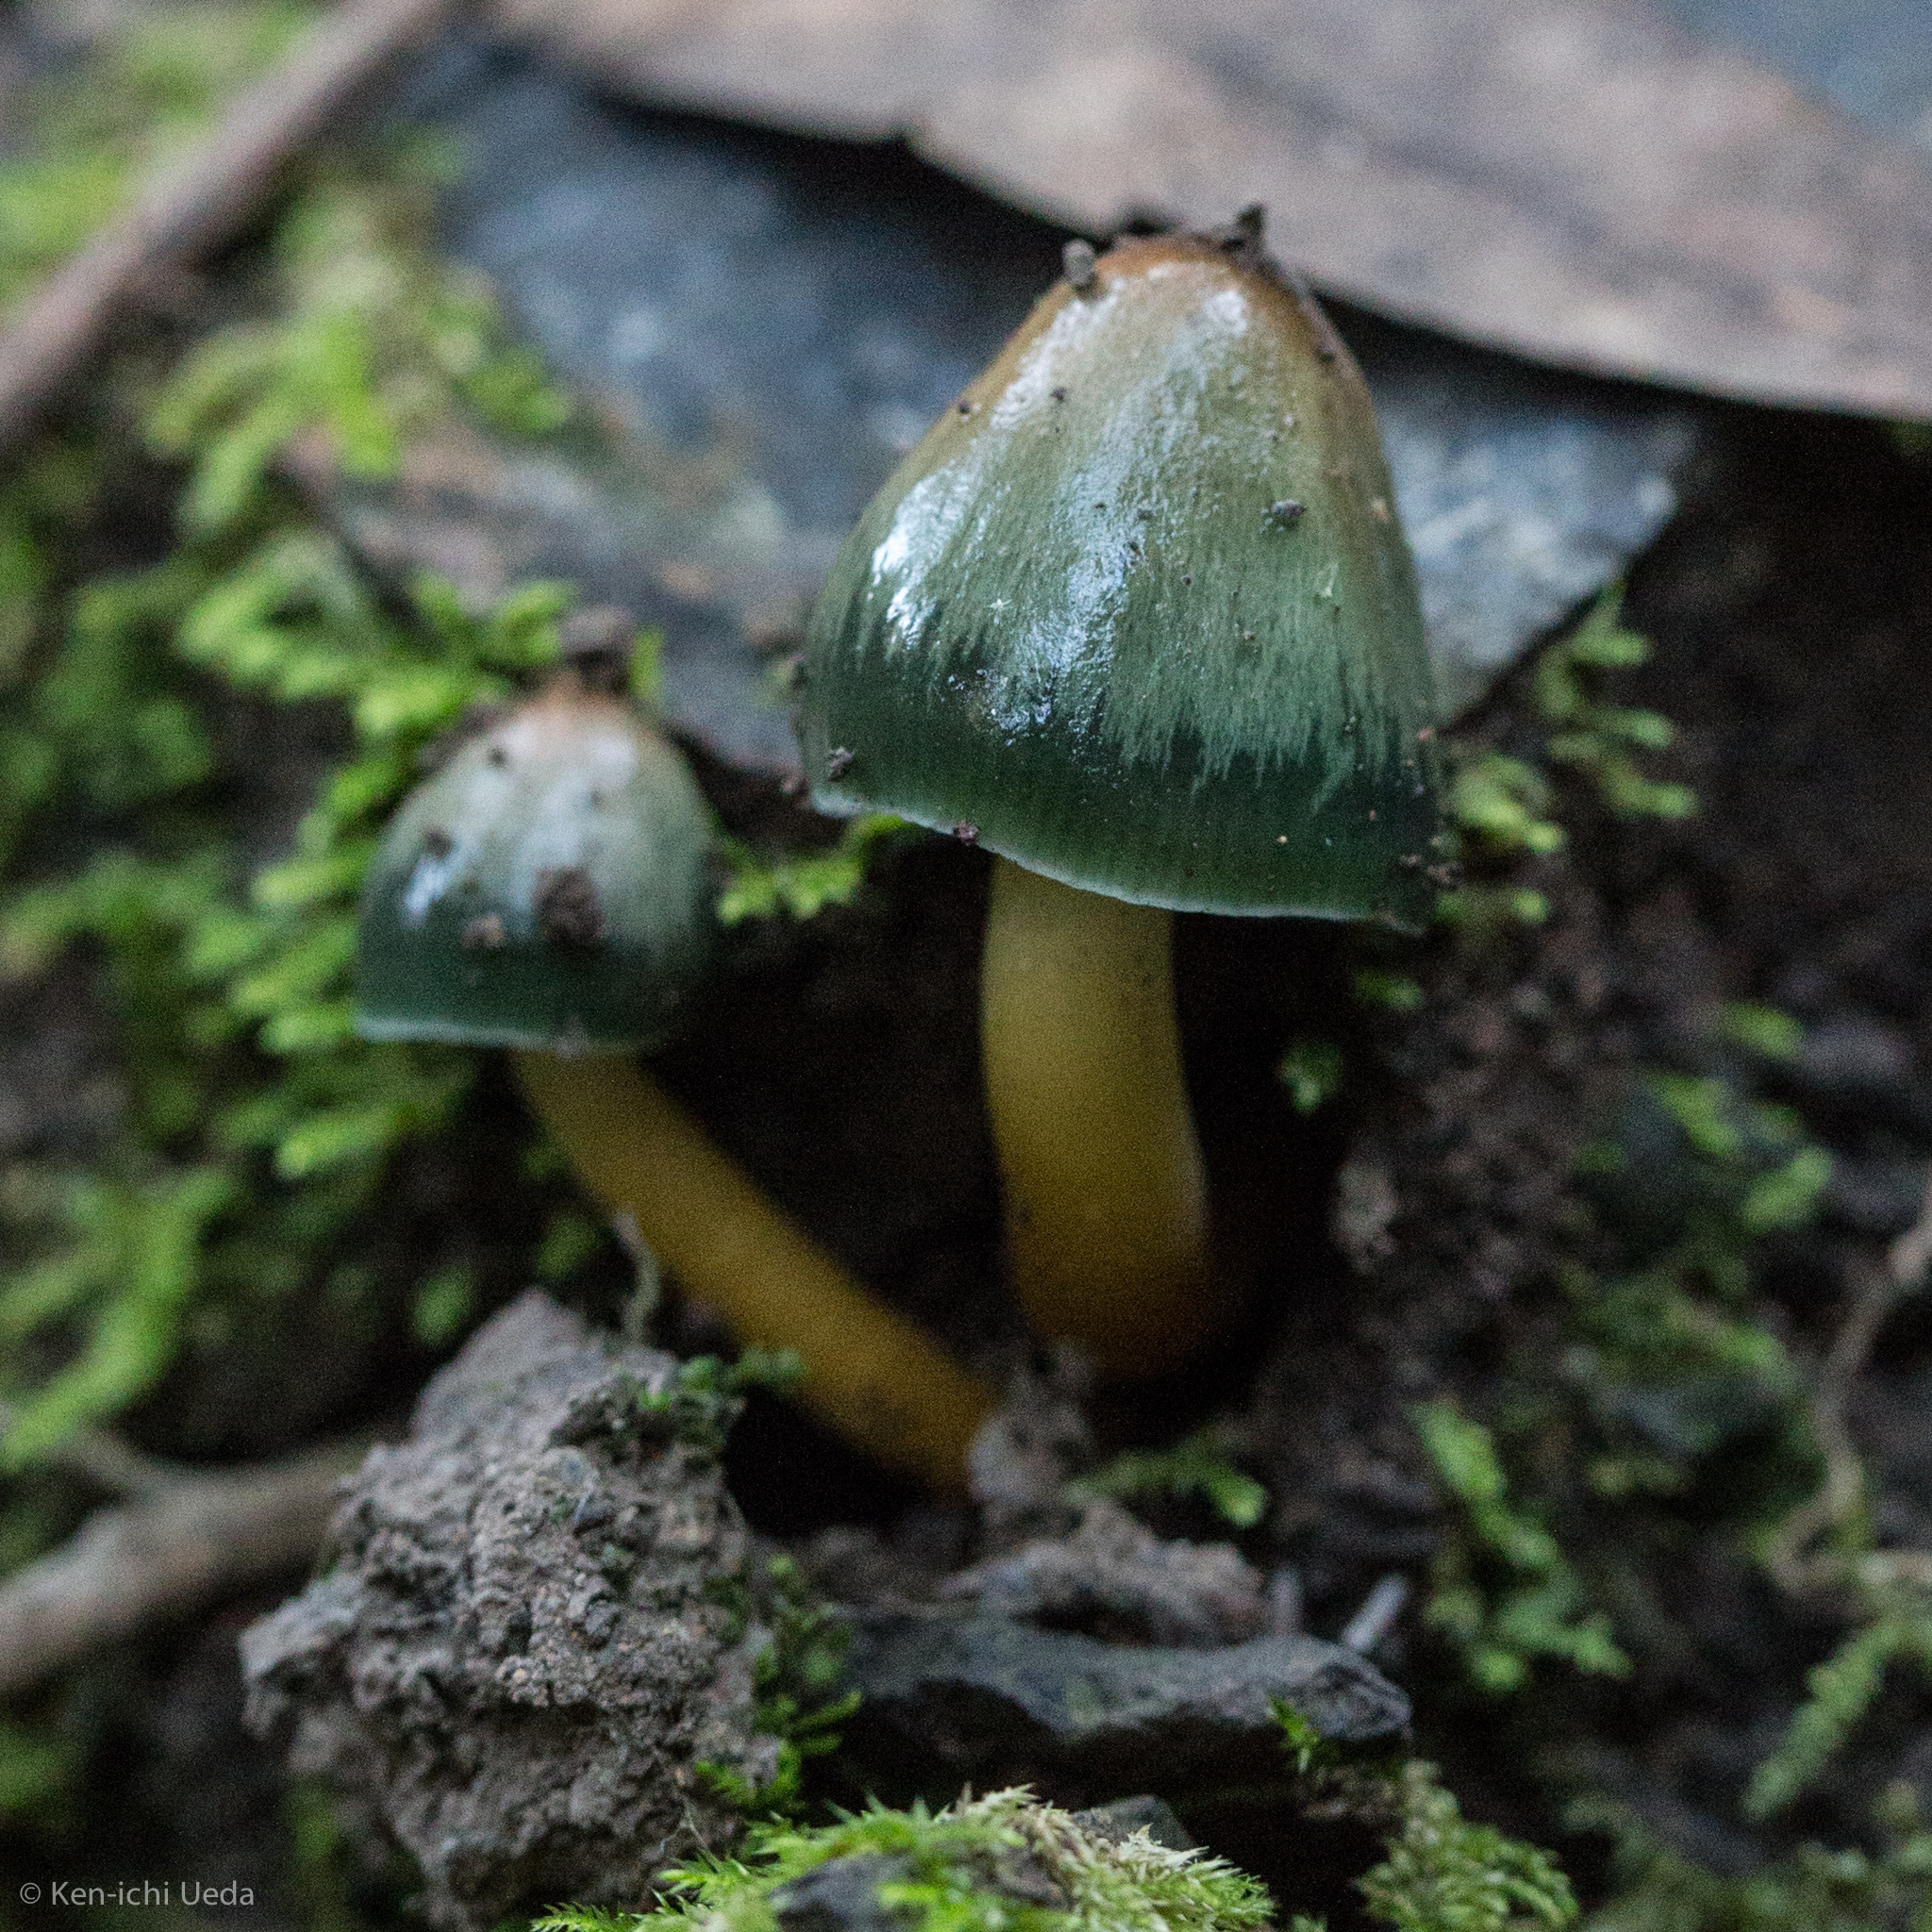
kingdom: Fungi
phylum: Basidiomycota
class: Agaricomycetes
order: Agaricales
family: Hygrophoraceae
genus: Gliophorus
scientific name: Gliophorus psittacinus
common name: Parrot wax-cap
